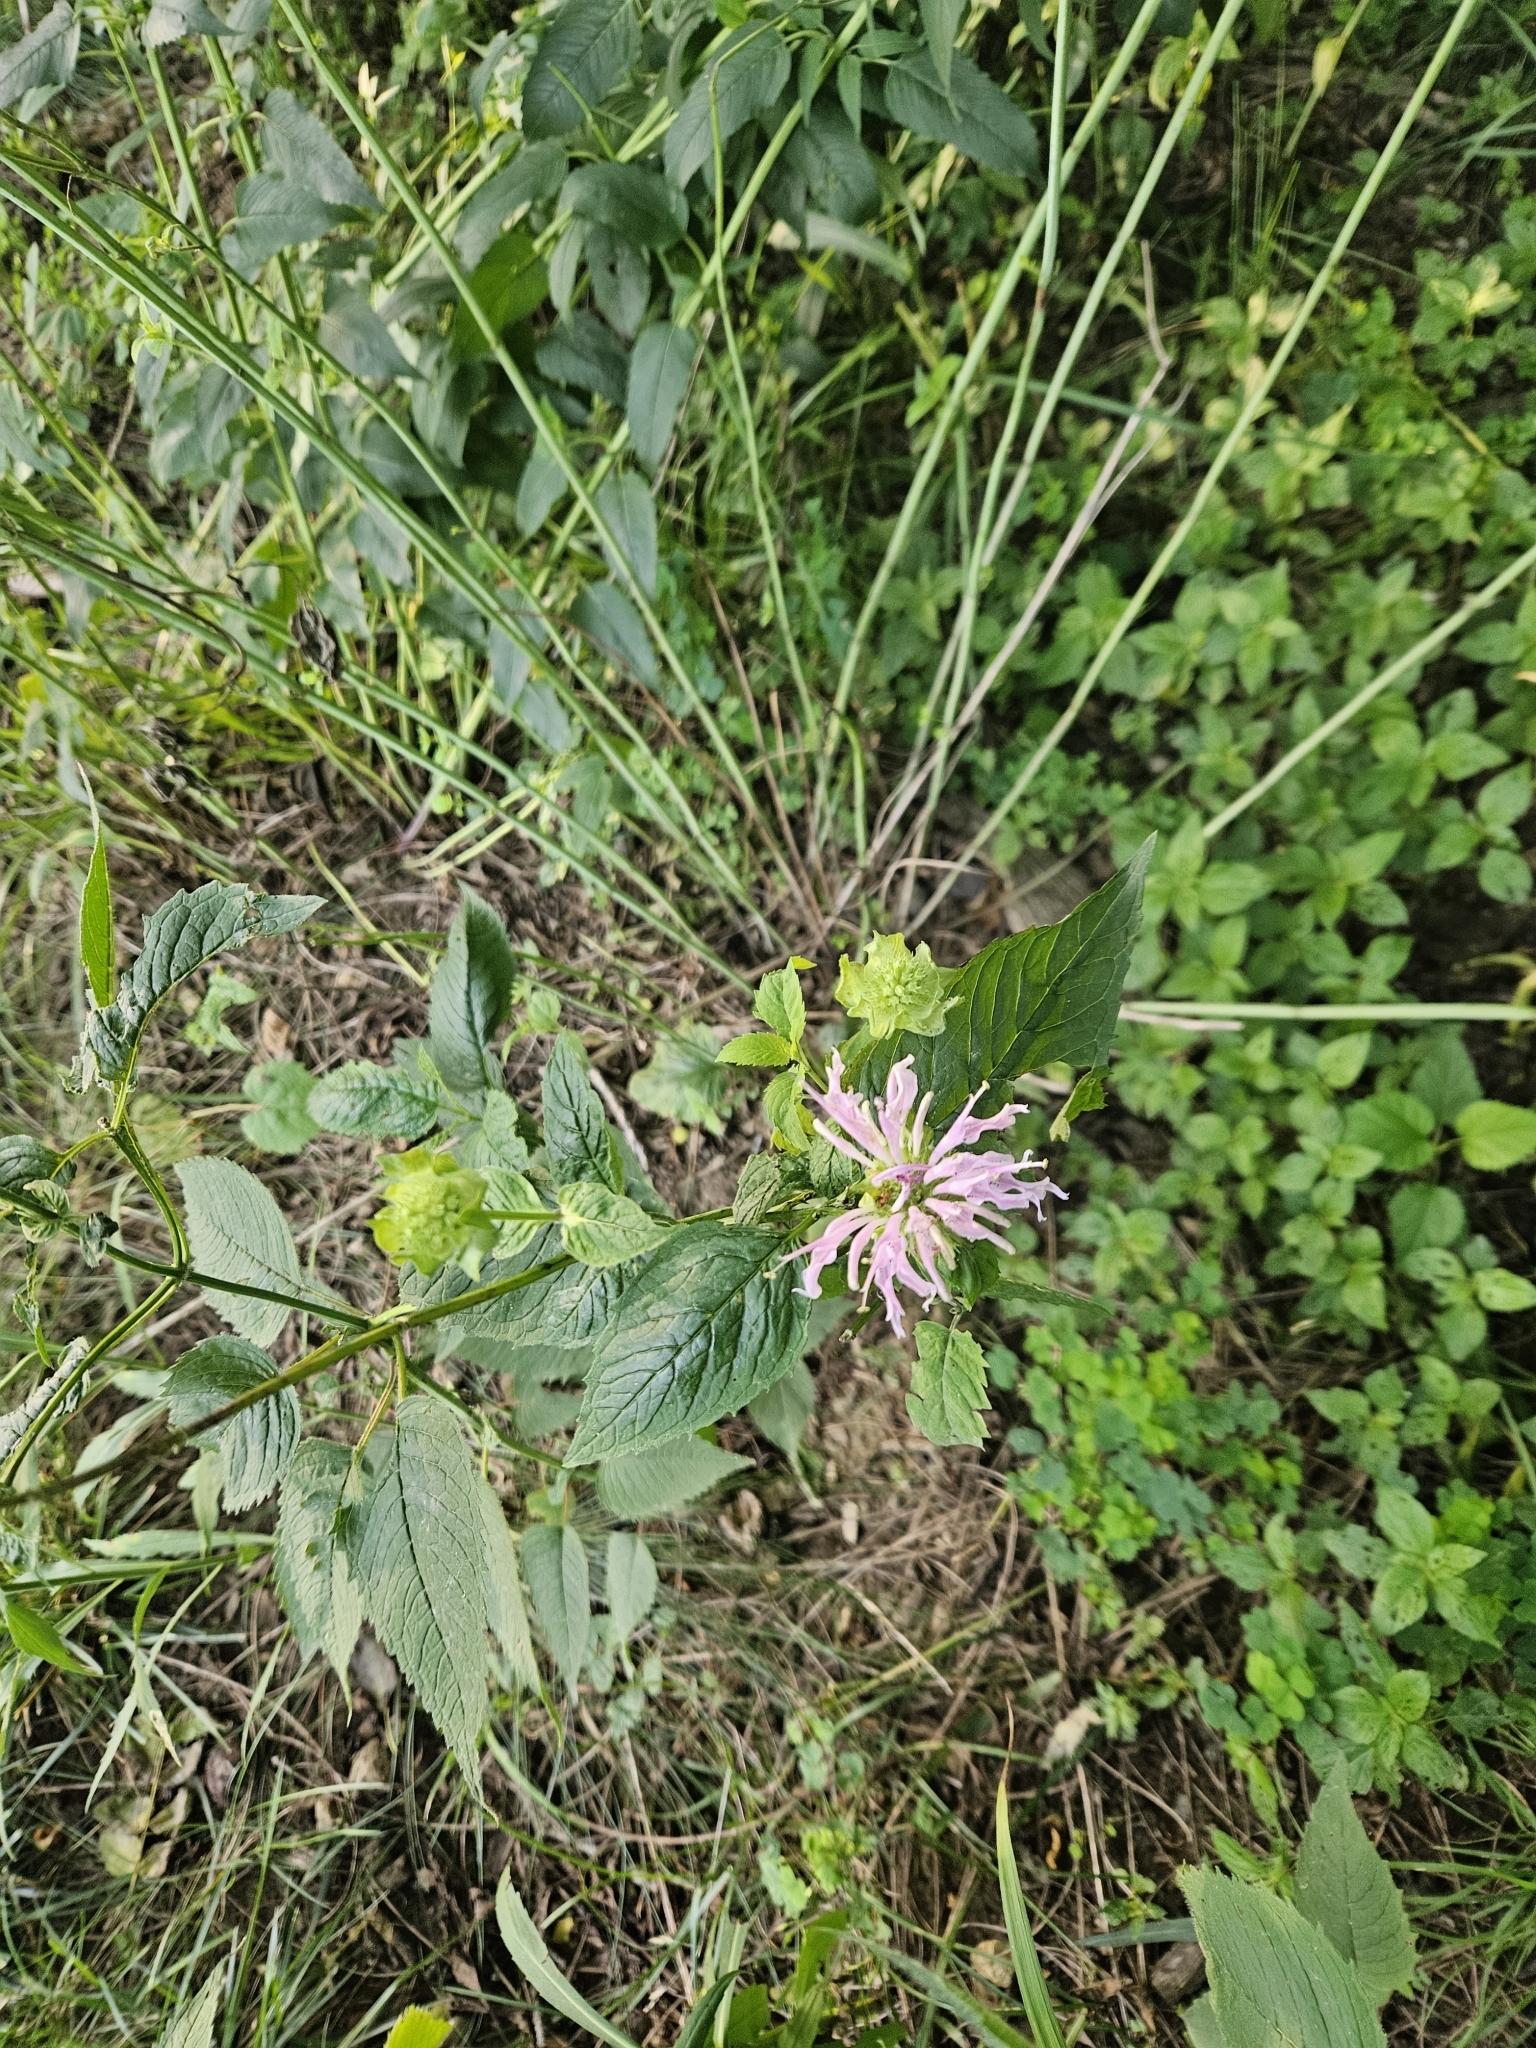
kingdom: Plantae
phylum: Tracheophyta
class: Magnoliopsida
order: Lamiales
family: Lamiaceae
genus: Monarda
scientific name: Monarda
